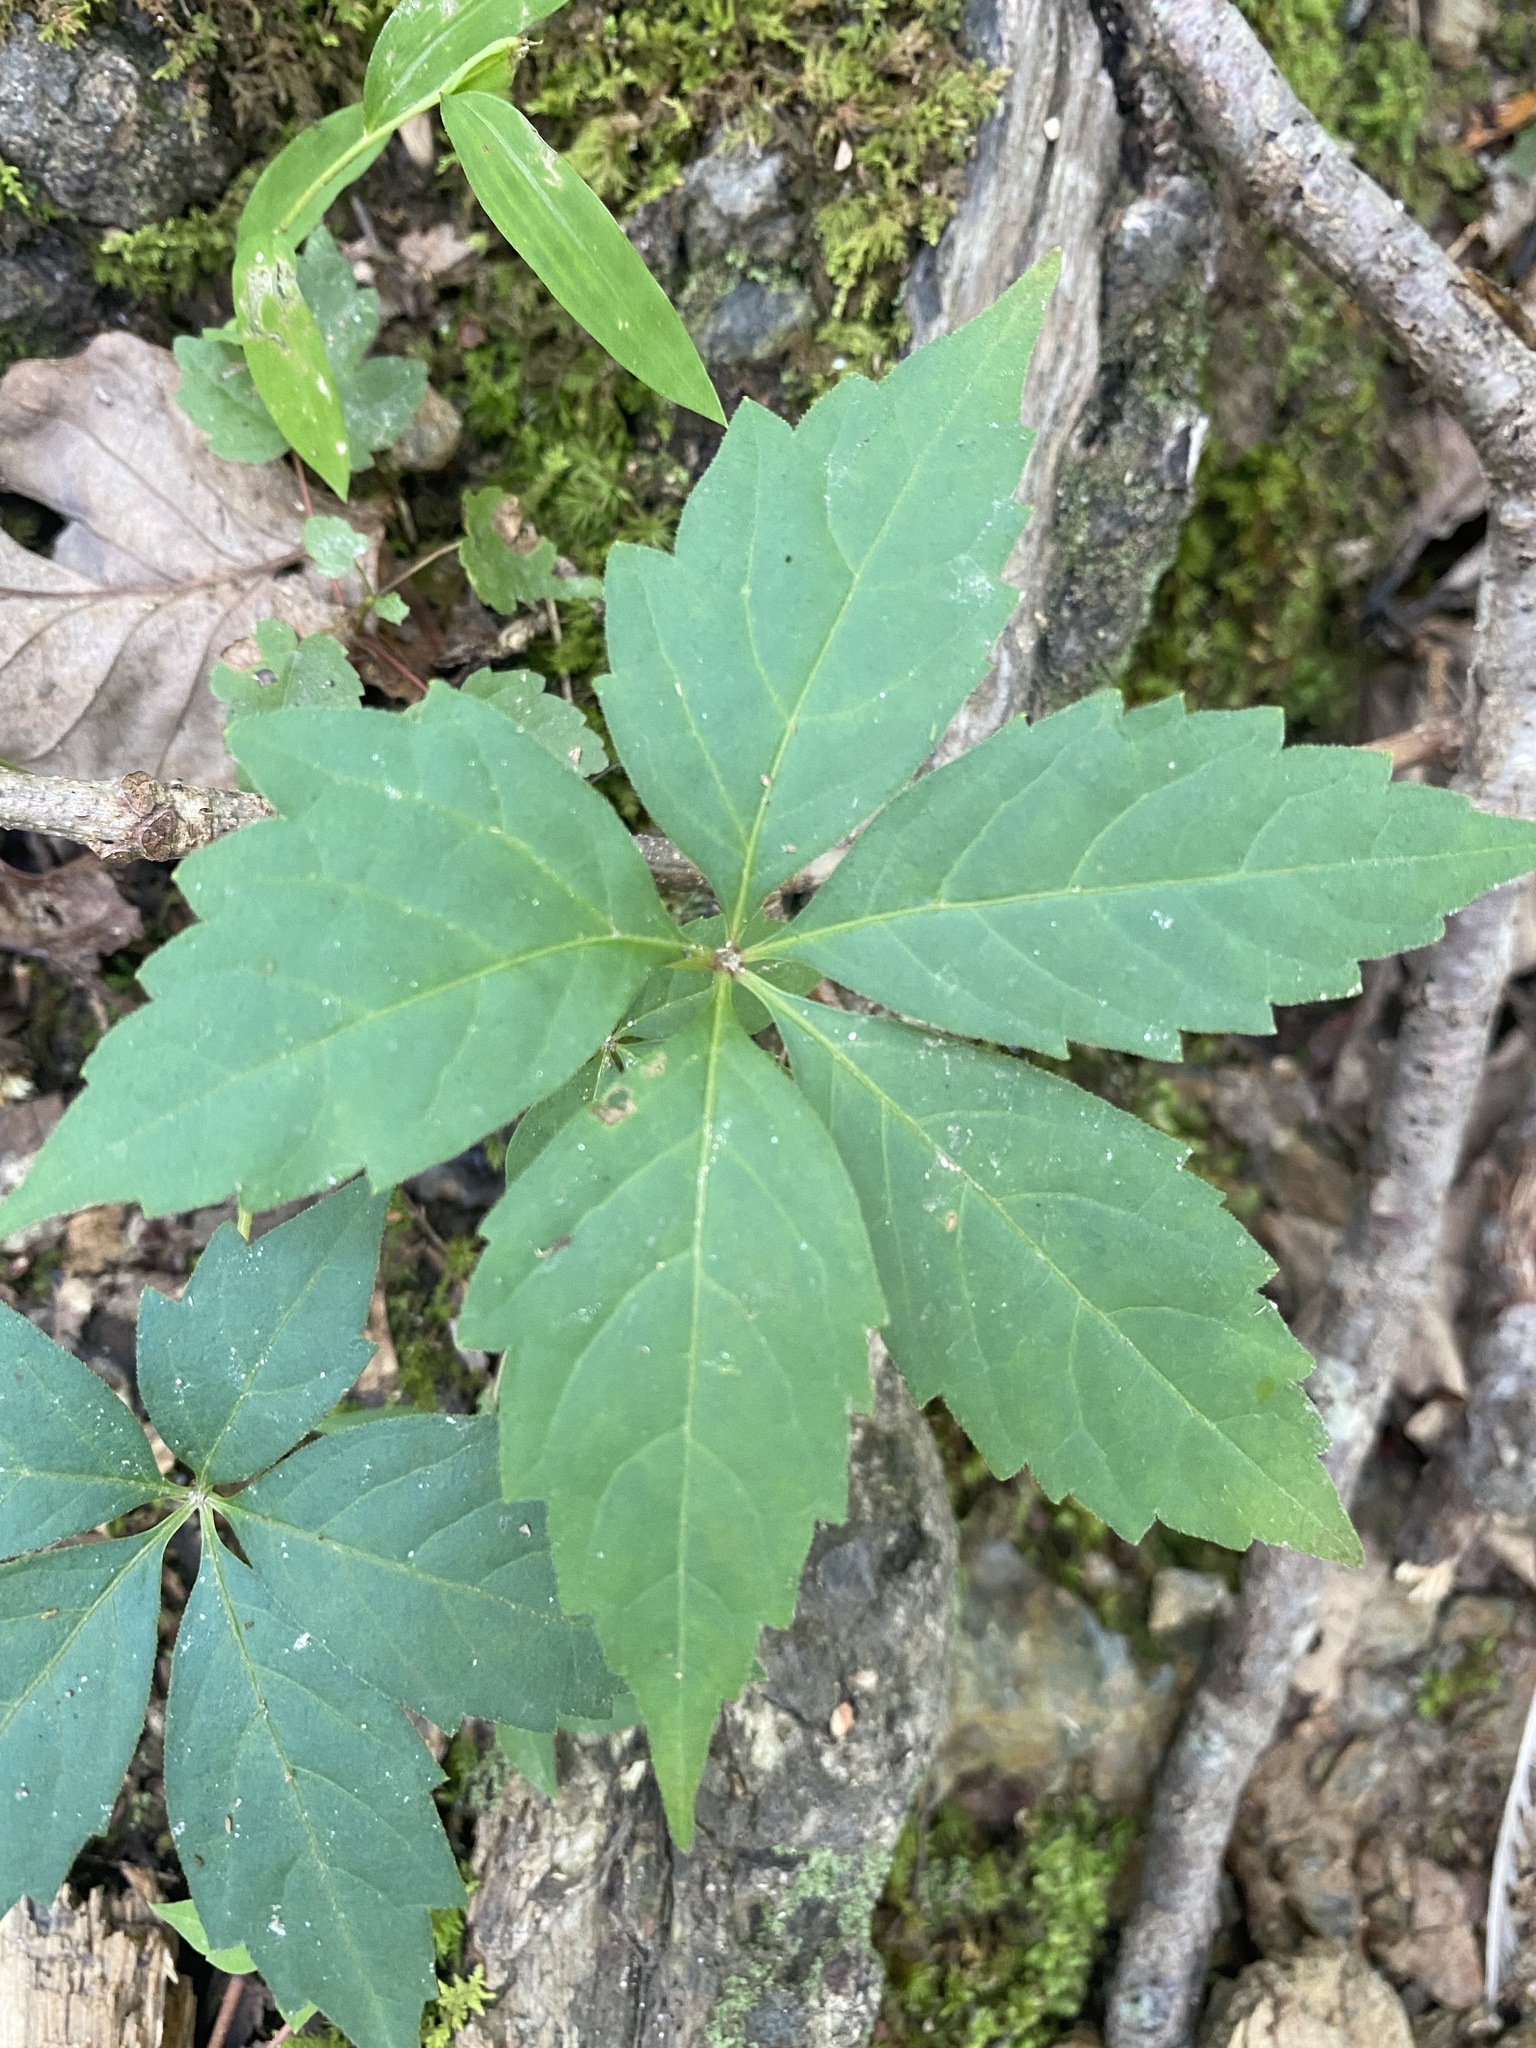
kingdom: Plantae
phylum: Tracheophyta
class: Magnoliopsida
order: Vitales
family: Vitaceae
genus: Parthenocissus
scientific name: Parthenocissus quinquefolia
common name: Virginia-creeper
